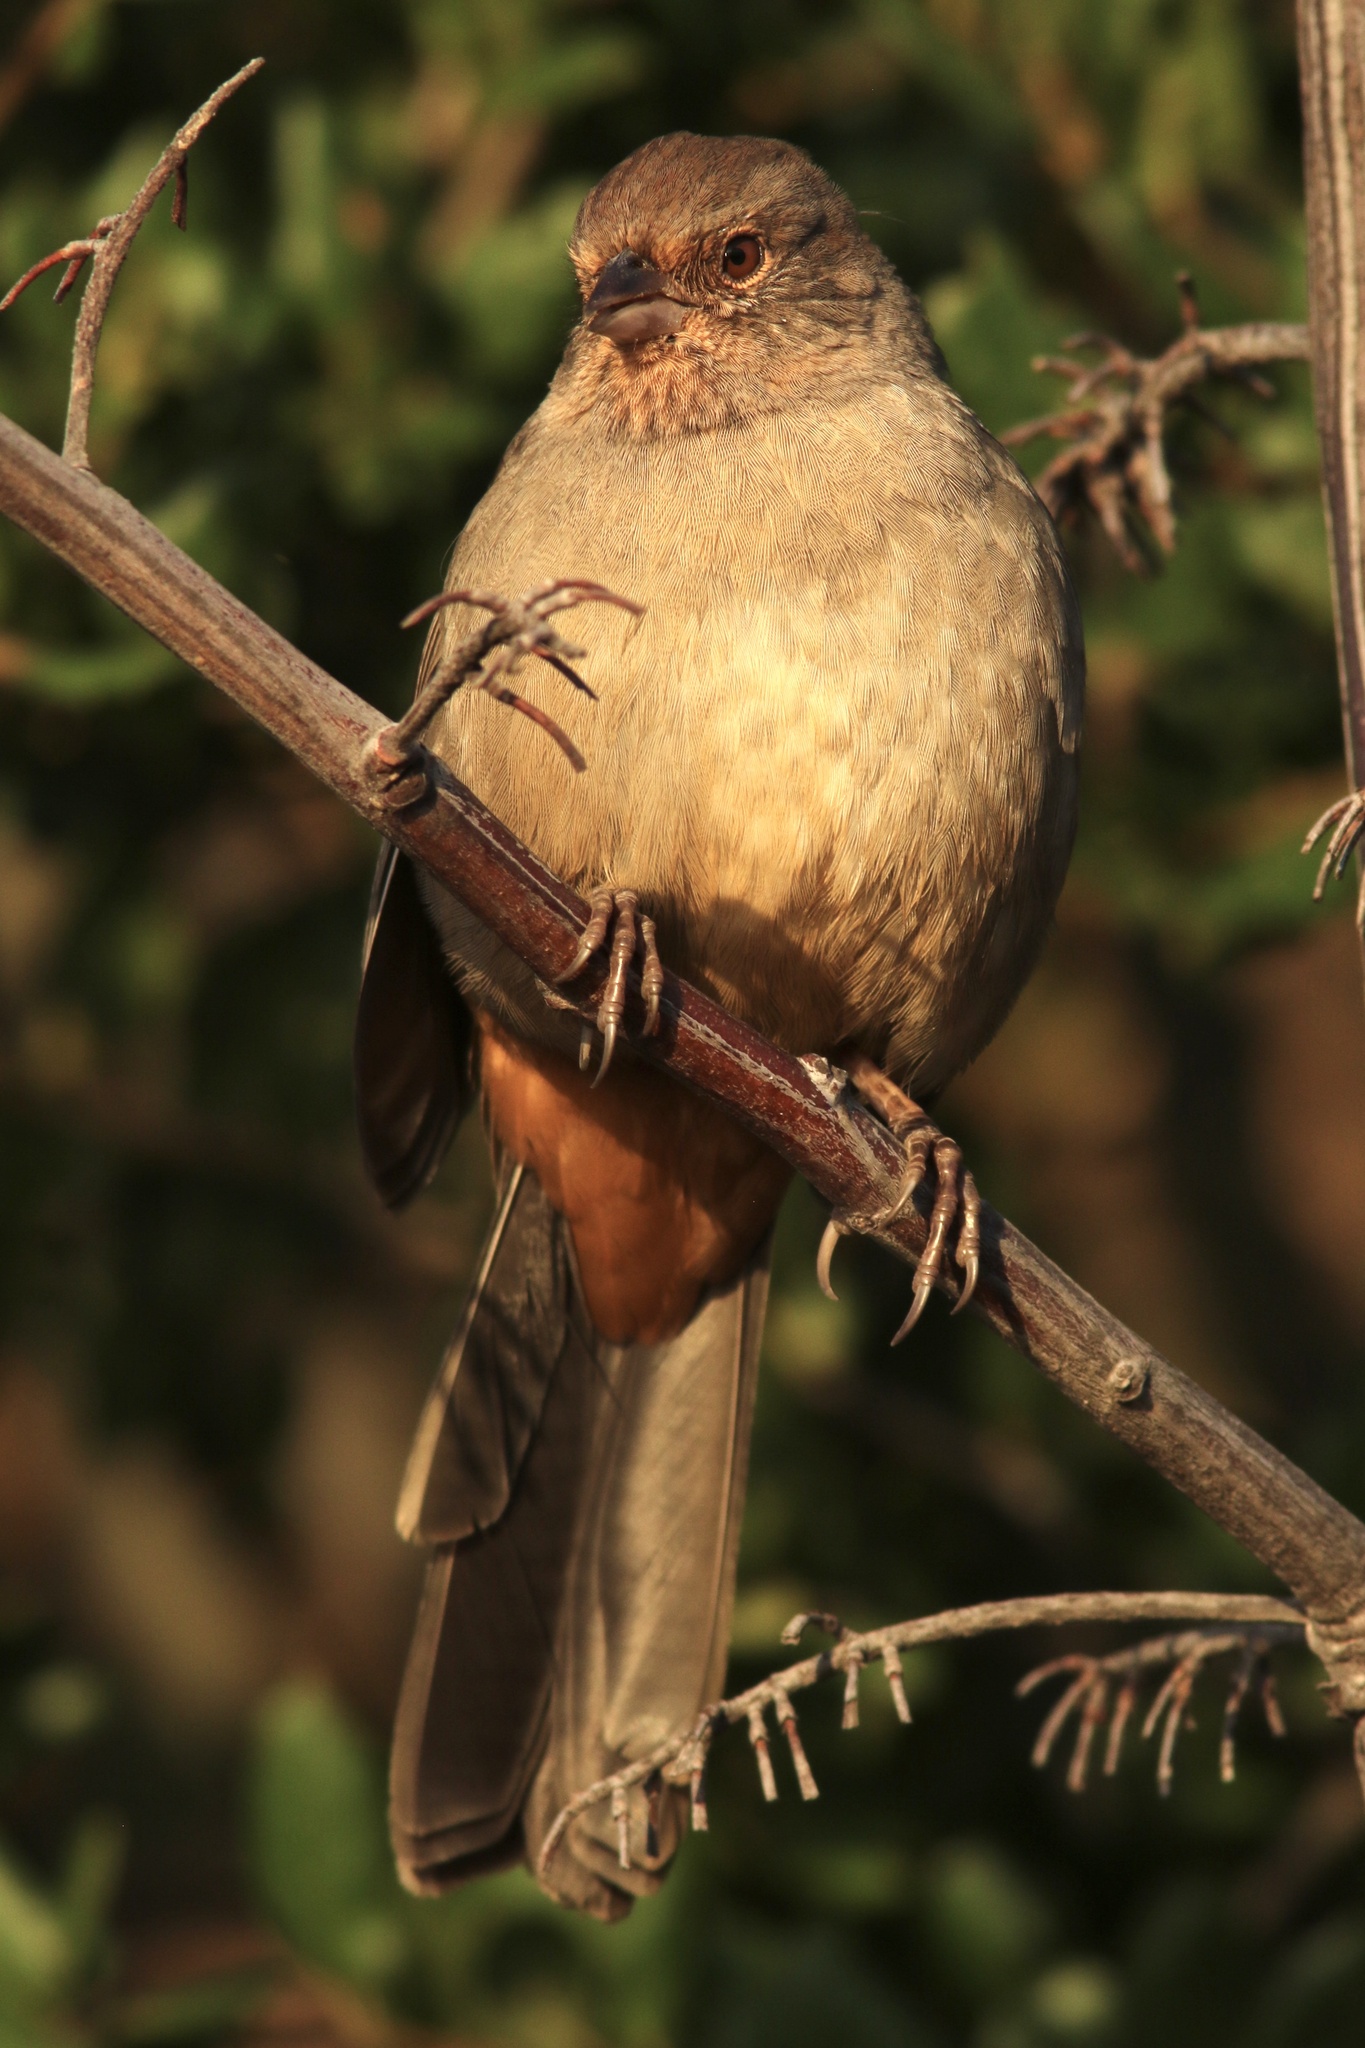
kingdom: Animalia
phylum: Chordata
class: Aves
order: Passeriformes
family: Passerellidae
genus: Melozone
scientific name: Melozone crissalis
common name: California towhee
